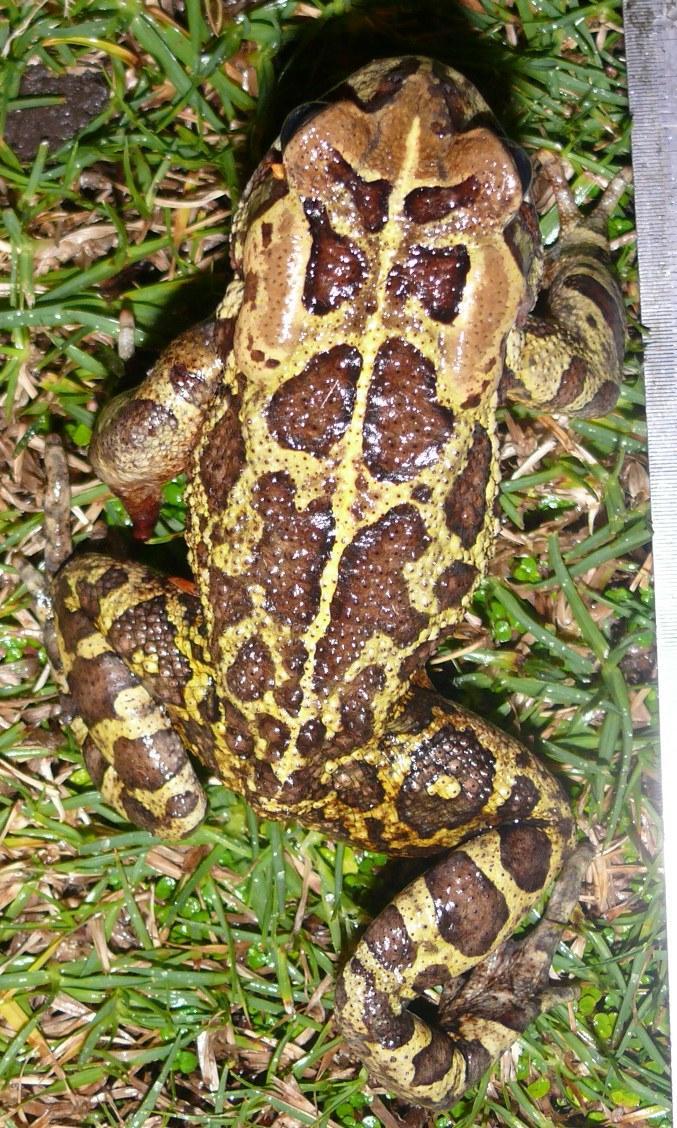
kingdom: Animalia
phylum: Chordata
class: Amphibia
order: Anura
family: Bufonidae
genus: Sclerophrys
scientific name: Sclerophrys pantherina
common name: Panther toad
